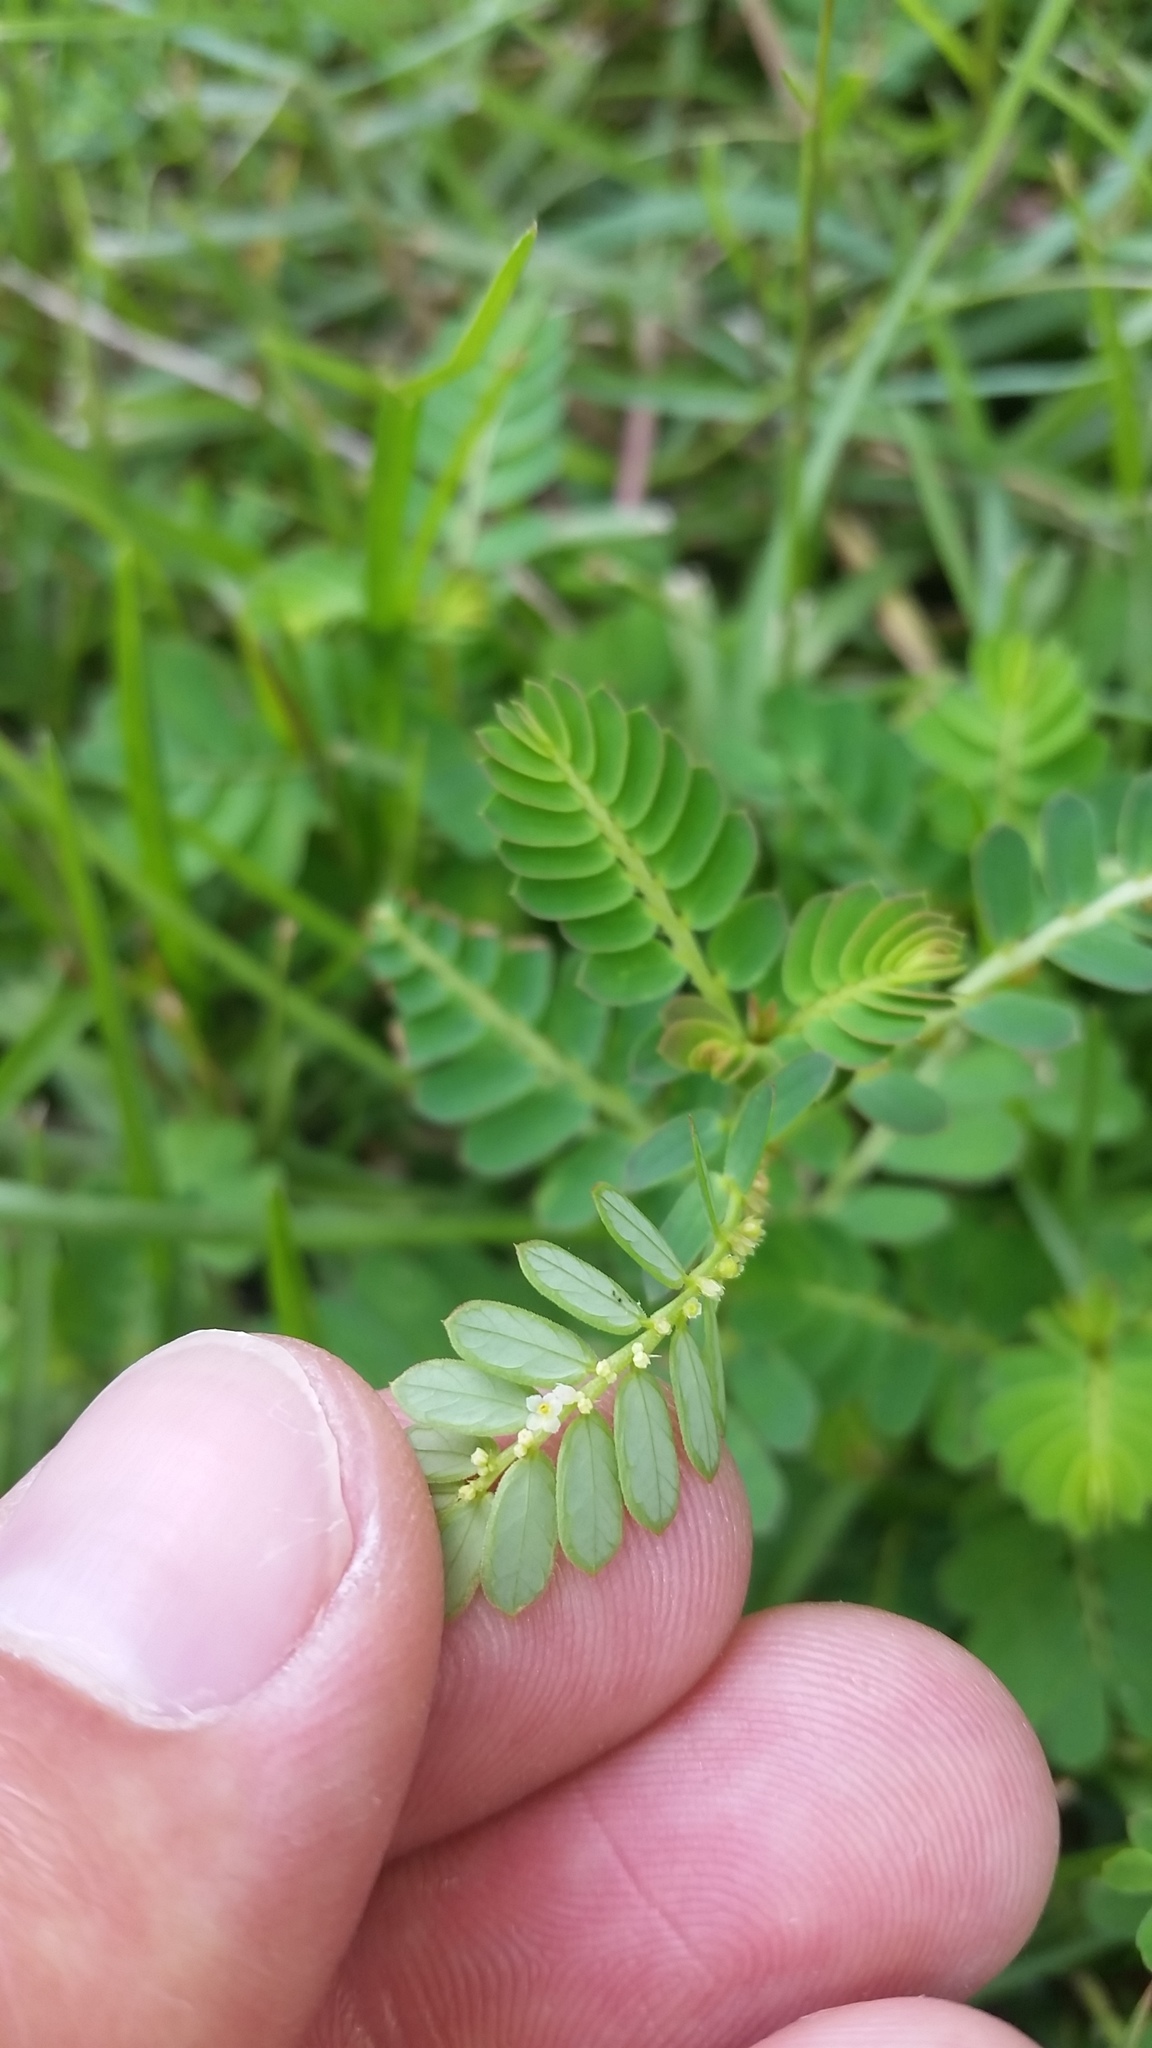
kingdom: Plantae
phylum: Tracheophyta
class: Magnoliopsida
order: Malpighiales
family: Phyllanthaceae
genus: Phyllanthus
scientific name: Phyllanthus urinaria
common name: Chamber bitter
